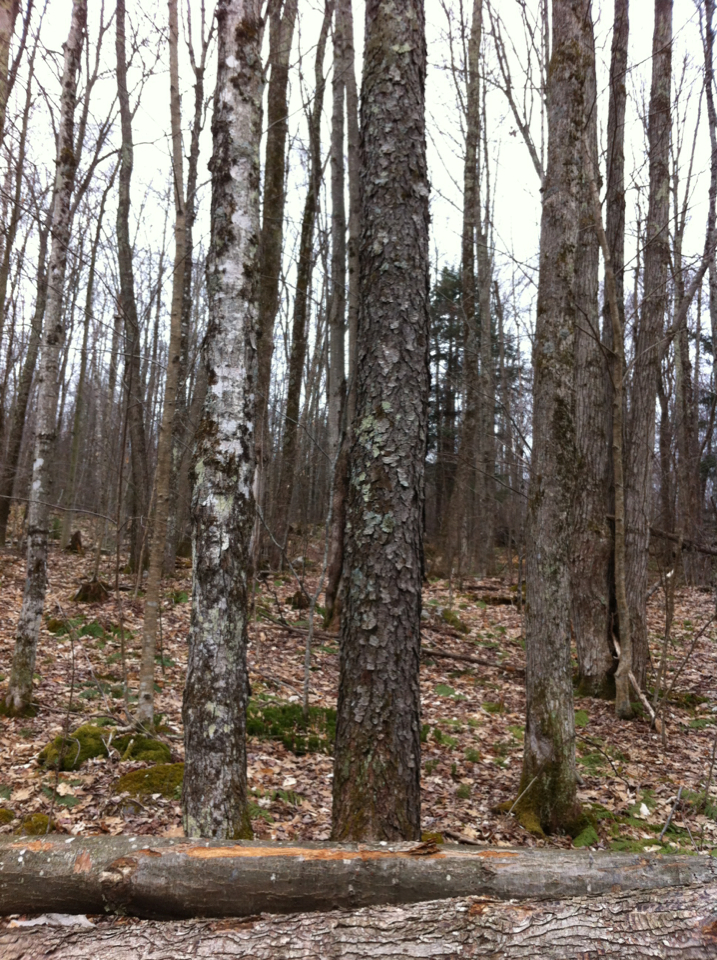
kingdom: Plantae
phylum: Tracheophyta
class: Magnoliopsida
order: Rosales
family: Rosaceae
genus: Prunus
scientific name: Prunus serotina
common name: Black cherry
